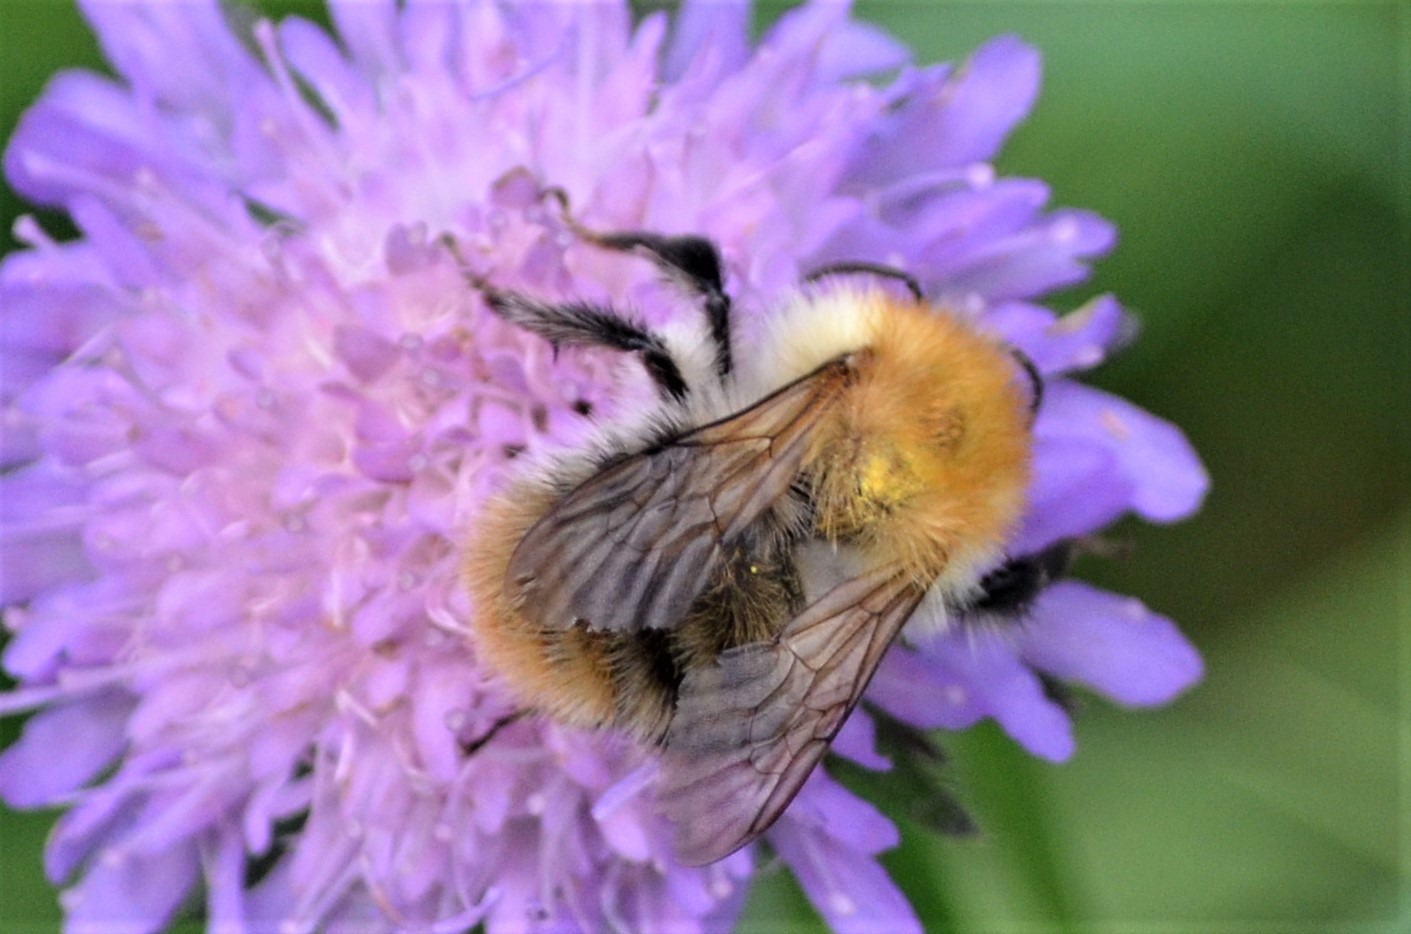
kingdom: Animalia
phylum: Arthropoda
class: Insecta
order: Hymenoptera
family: Apidae
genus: Bombus
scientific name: Bombus pascuorum
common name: Common carder bee
